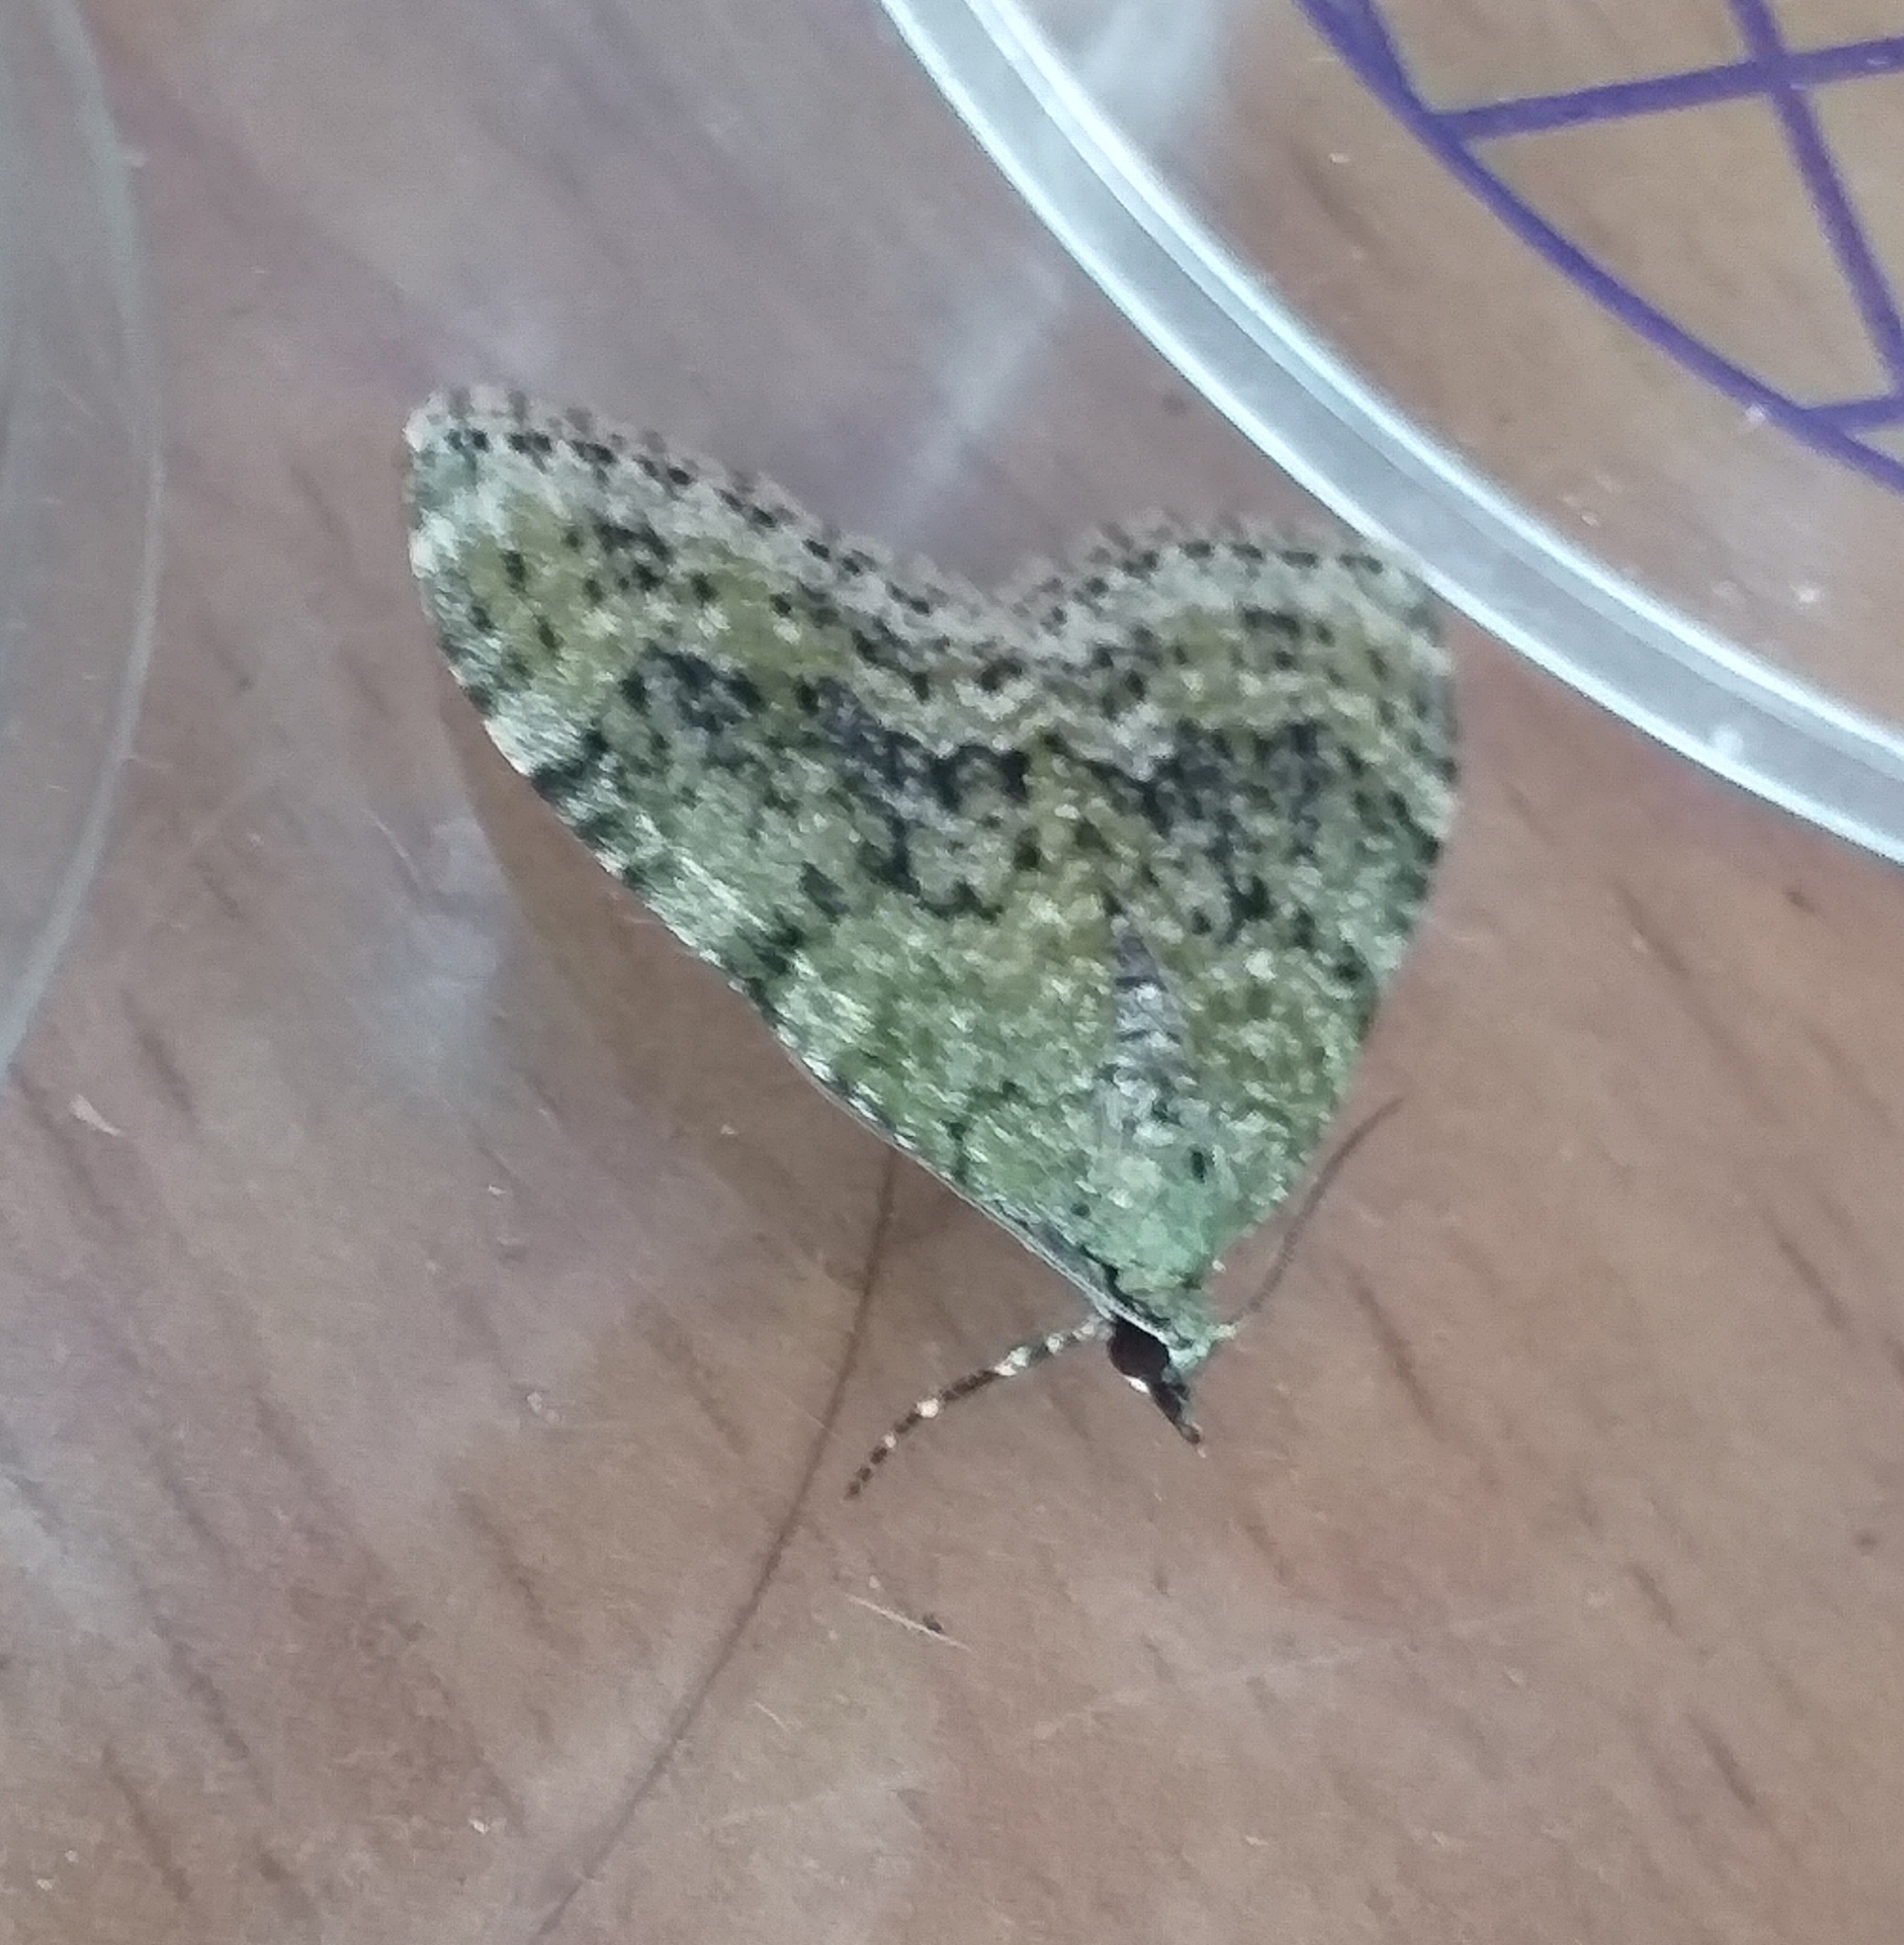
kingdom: Animalia
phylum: Arthropoda
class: Insecta
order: Lepidoptera
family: Geometridae
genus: Acasis
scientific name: Acasis viretata
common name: Yellow-barred brindle
